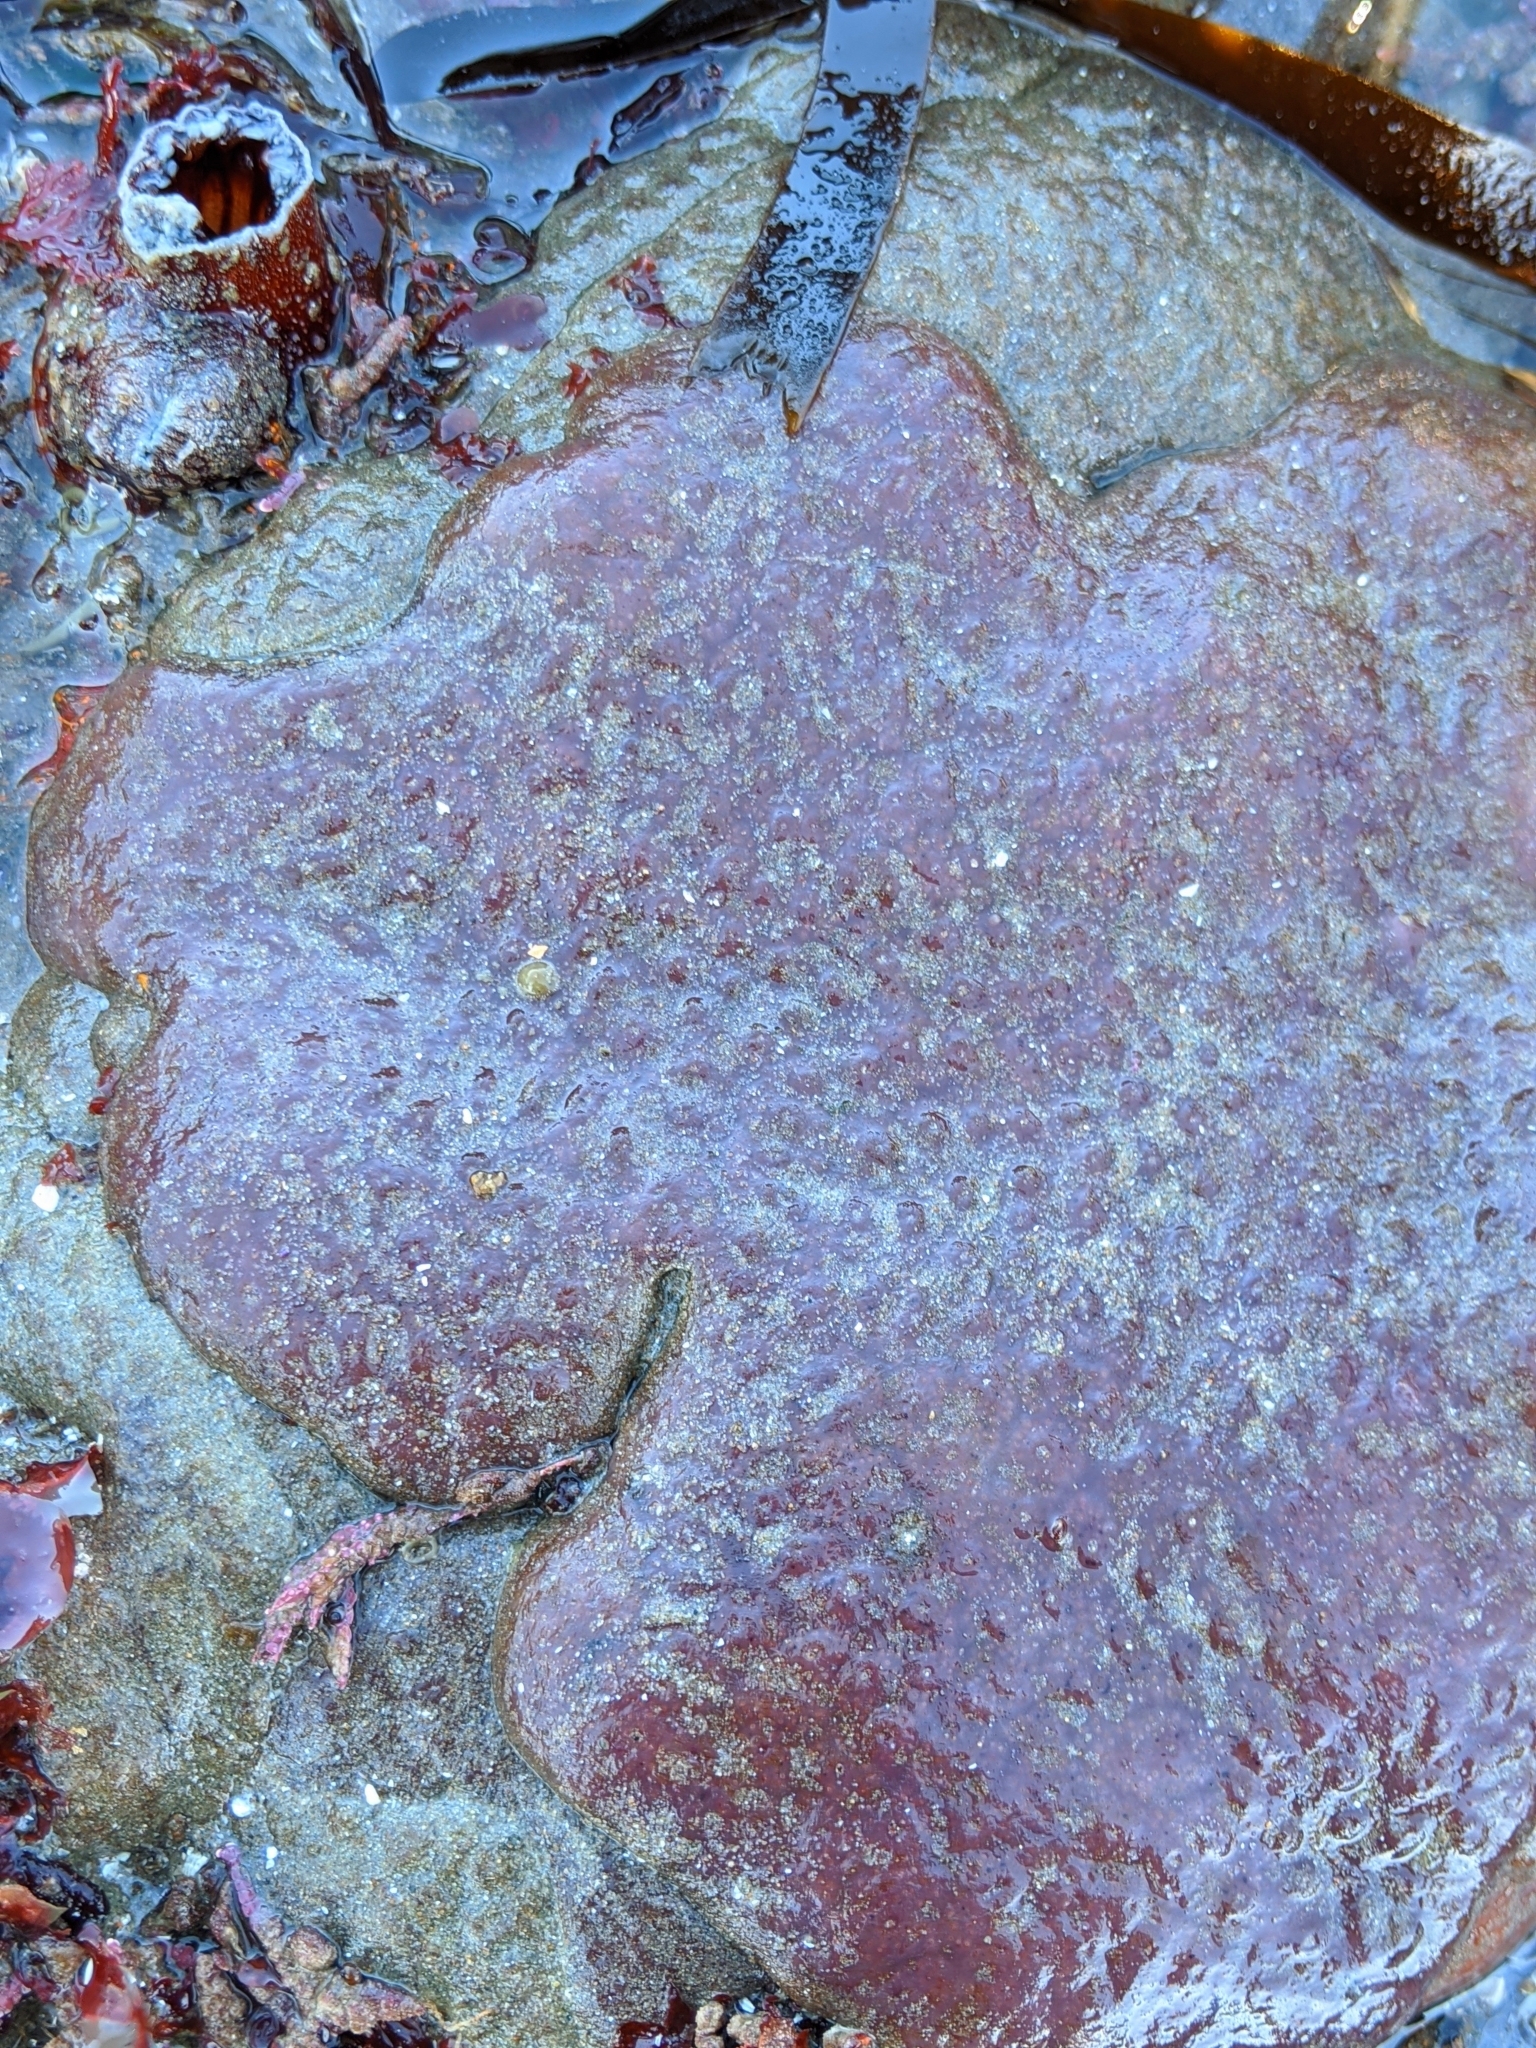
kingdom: Animalia
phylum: Chordata
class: Ascidiacea
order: Aplousobranchia
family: Polycitoridae
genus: Eudistoma
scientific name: Eudistoma psammion
